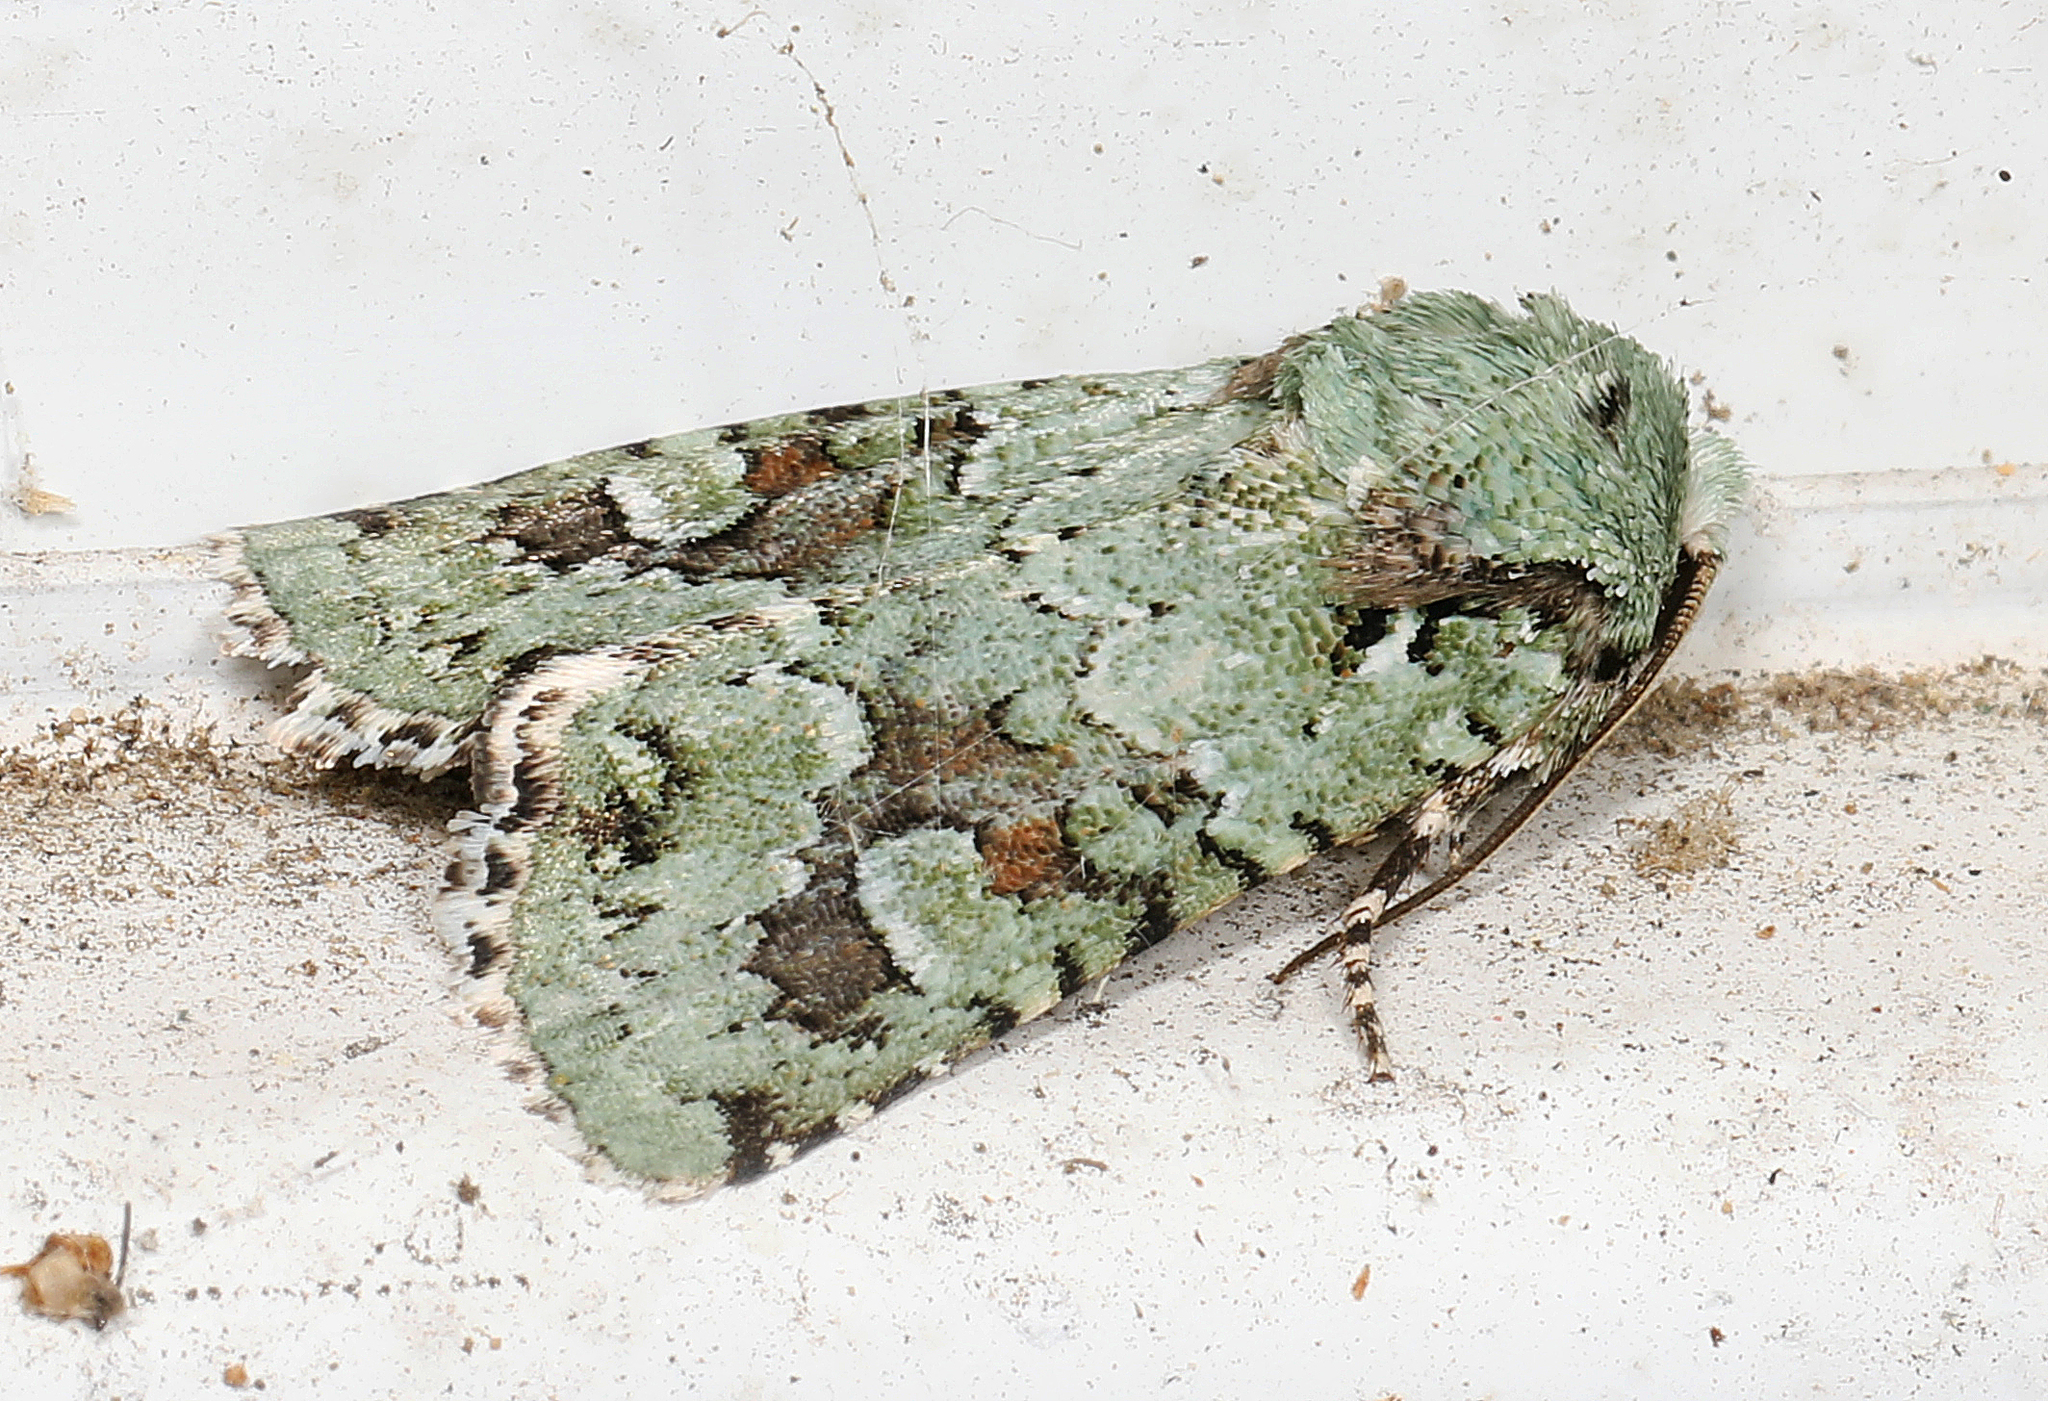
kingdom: Animalia
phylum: Arthropoda
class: Insecta
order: Lepidoptera
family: Noctuidae
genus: Lacinipolia
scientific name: Lacinipolia laudabilis
